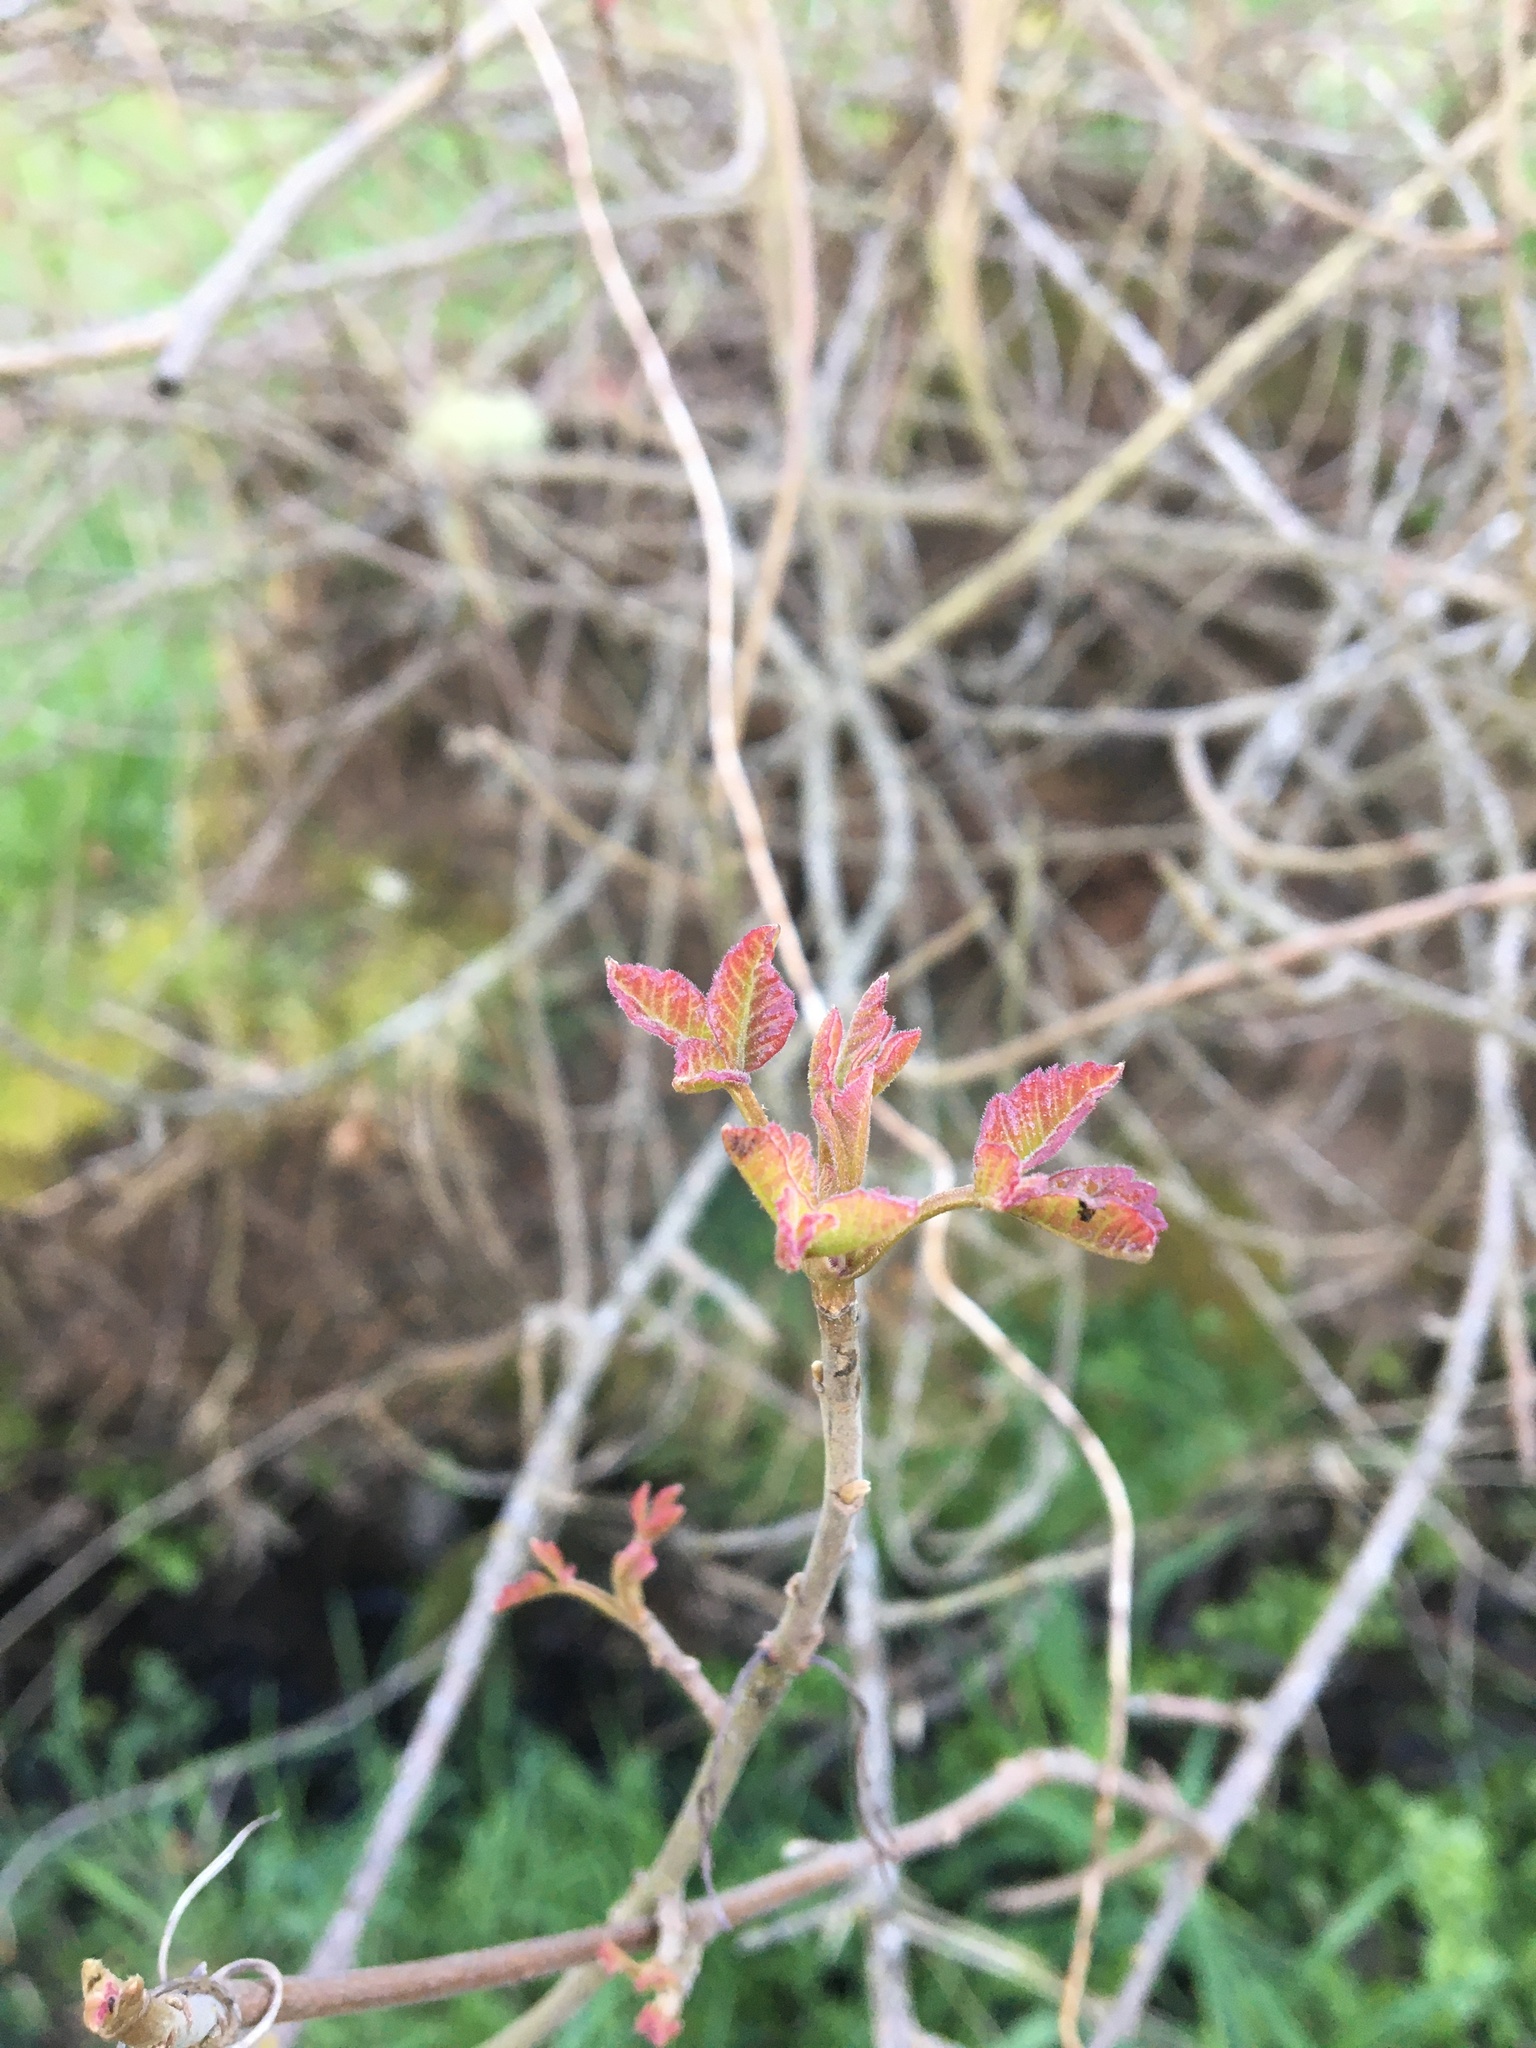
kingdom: Plantae
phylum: Tracheophyta
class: Magnoliopsida
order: Sapindales
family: Anacardiaceae
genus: Toxicodendron
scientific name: Toxicodendron diversilobum
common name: Pacific poison-oak
